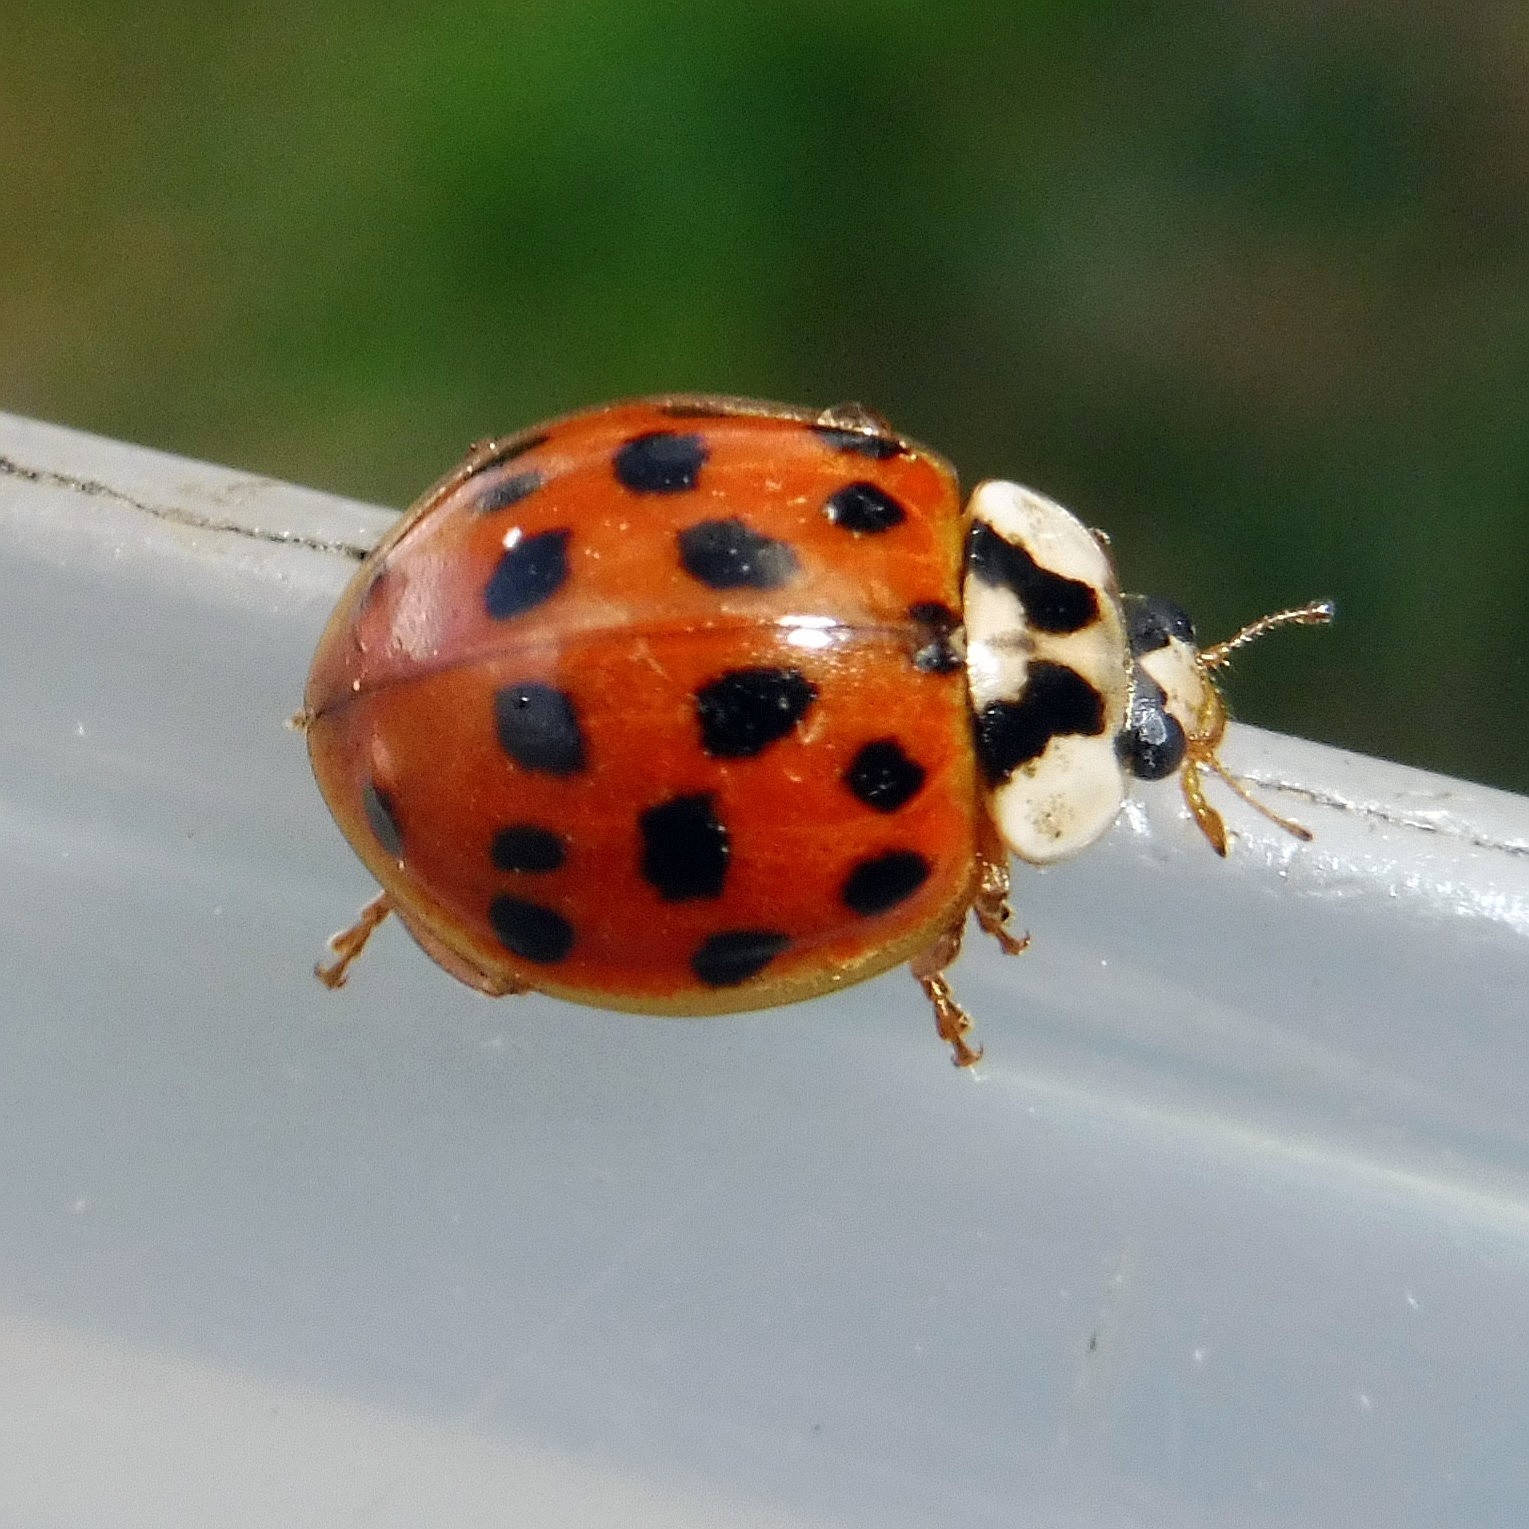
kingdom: Animalia
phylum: Arthropoda
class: Insecta
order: Coleoptera
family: Coccinellidae
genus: Harmonia
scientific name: Harmonia axyridis
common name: Harlequin ladybird
